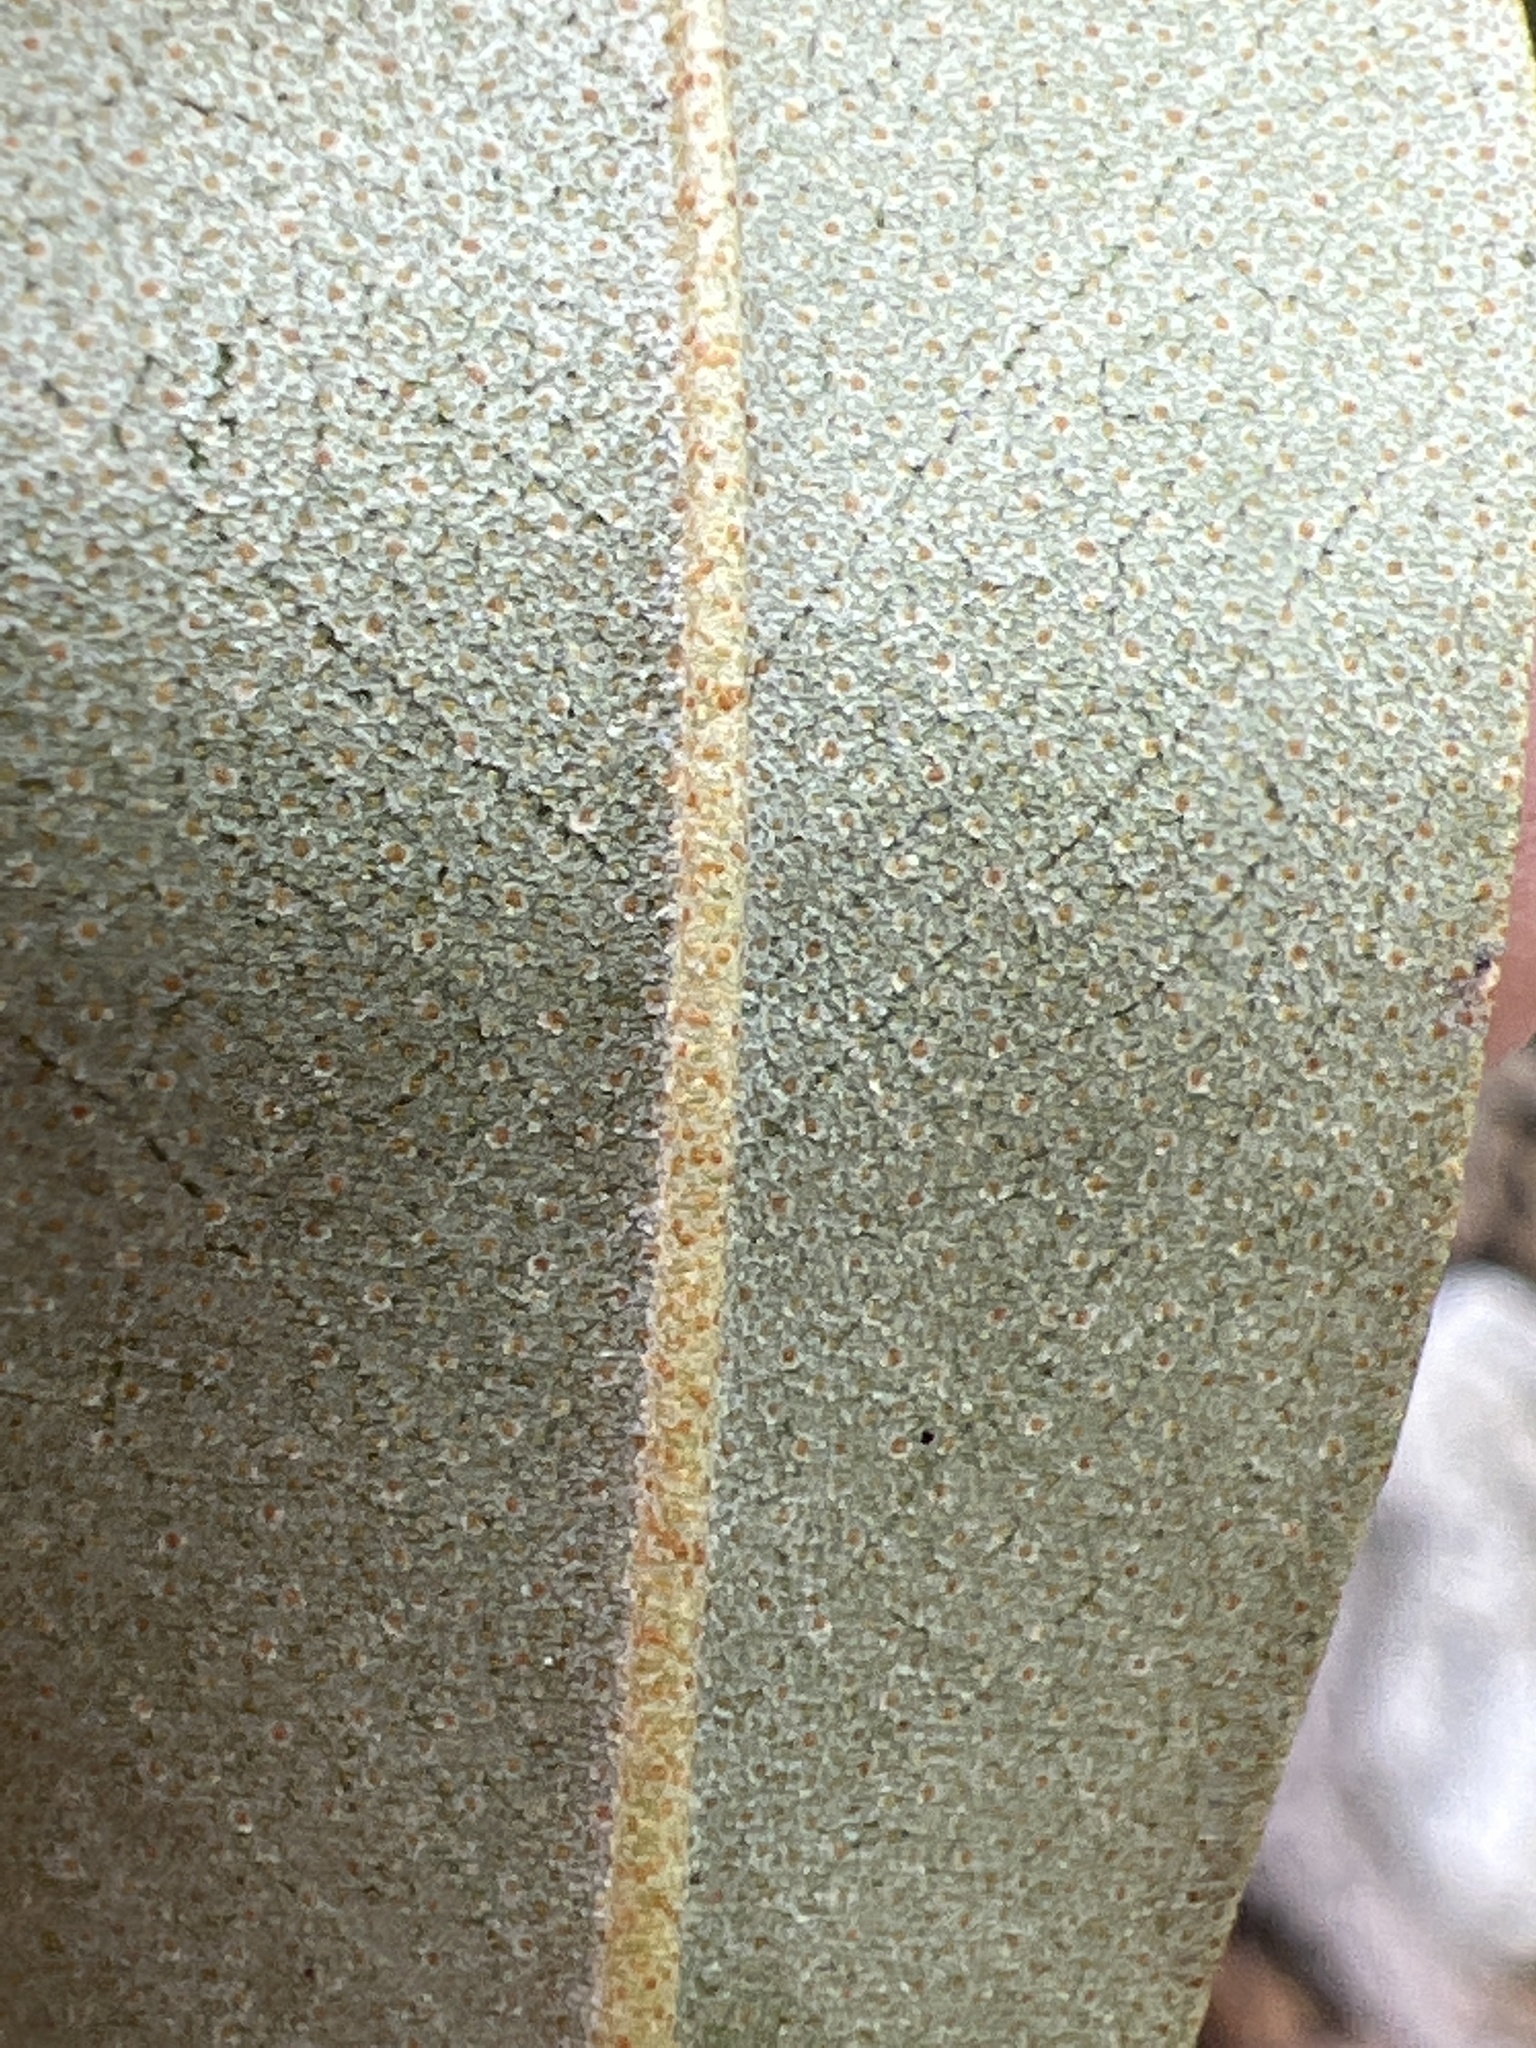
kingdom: Plantae
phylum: Tracheophyta
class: Magnoliopsida
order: Brassicales
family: Capparaceae
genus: Quadrella
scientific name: Quadrella cynophallophora
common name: Black willow
